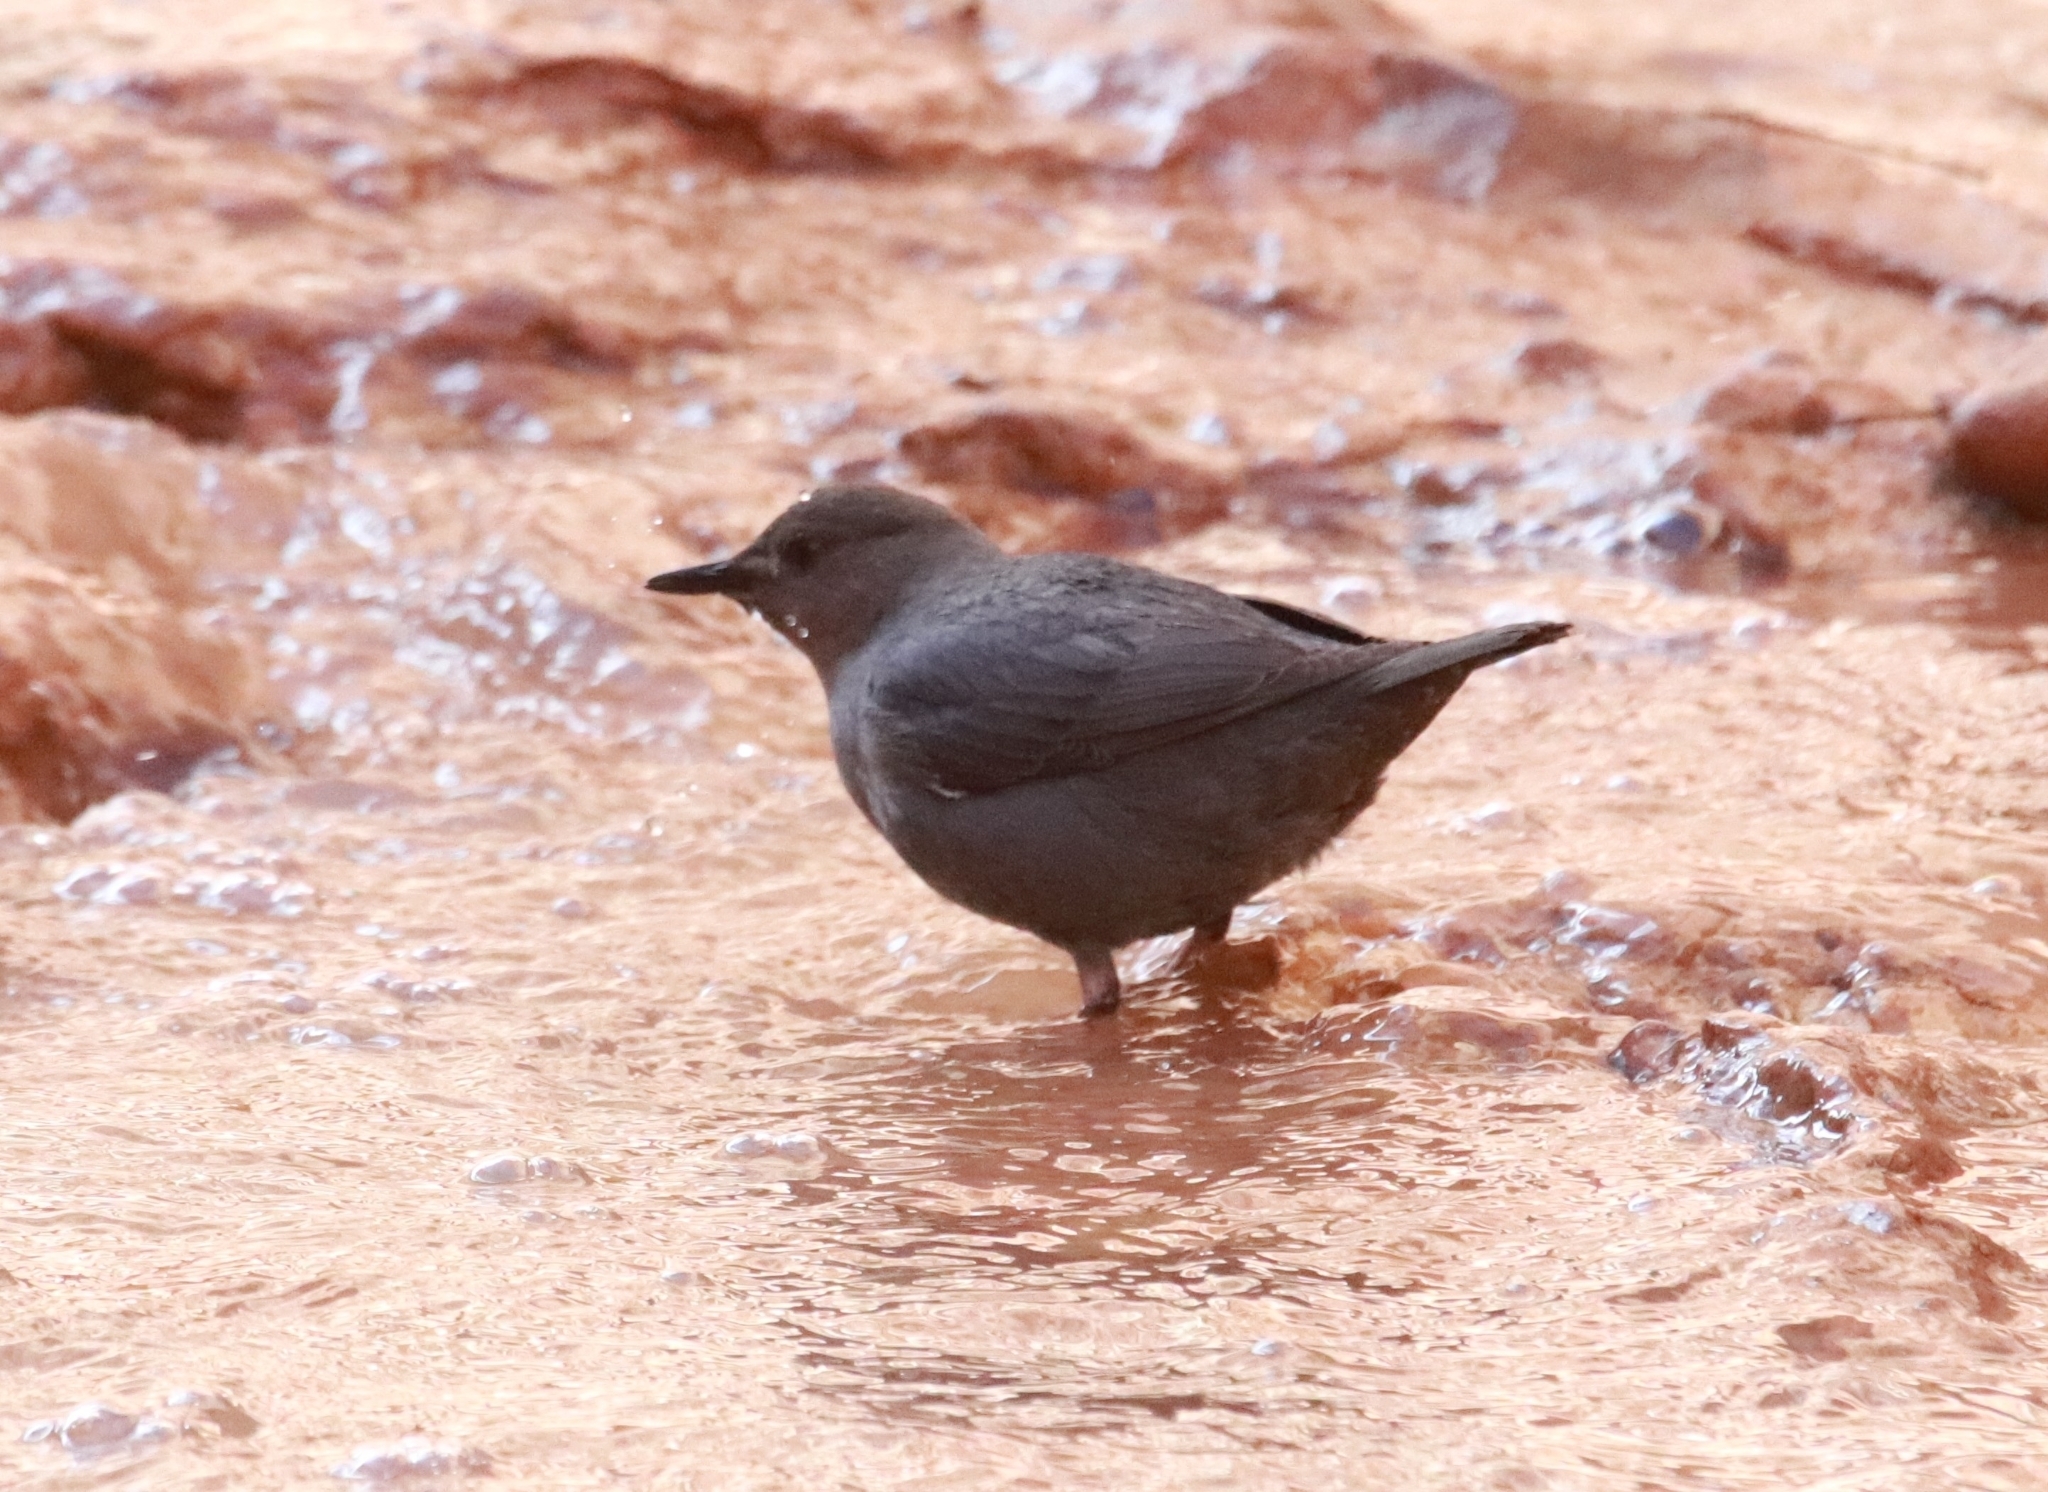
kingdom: Animalia
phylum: Chordata
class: Aves
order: Passeriformes
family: Cinclidae
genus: Cinclus
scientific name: Cinclus mexicanus
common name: American dipper
